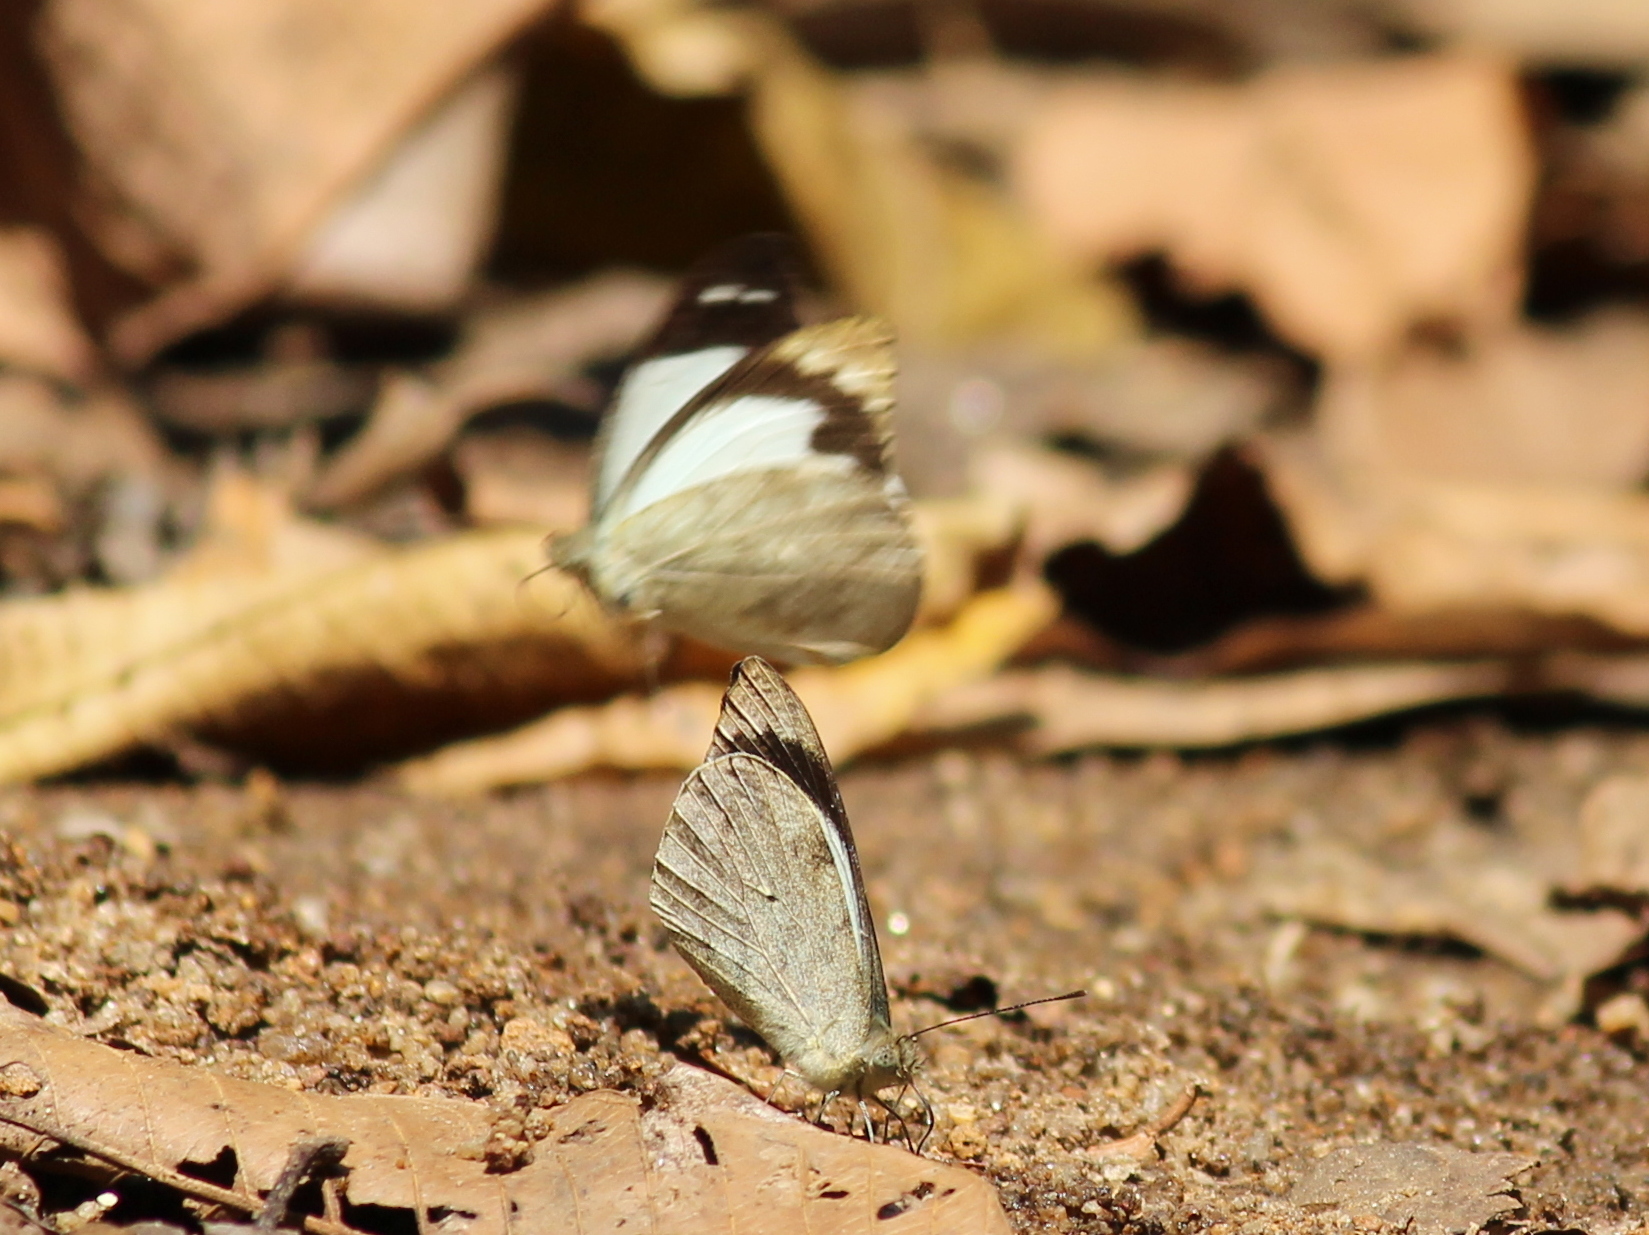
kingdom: Animalia
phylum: Arthropoda
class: Insecta
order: Lepidoptera
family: Pieridae
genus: Appias
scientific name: Appias indra
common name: Plain puffin
